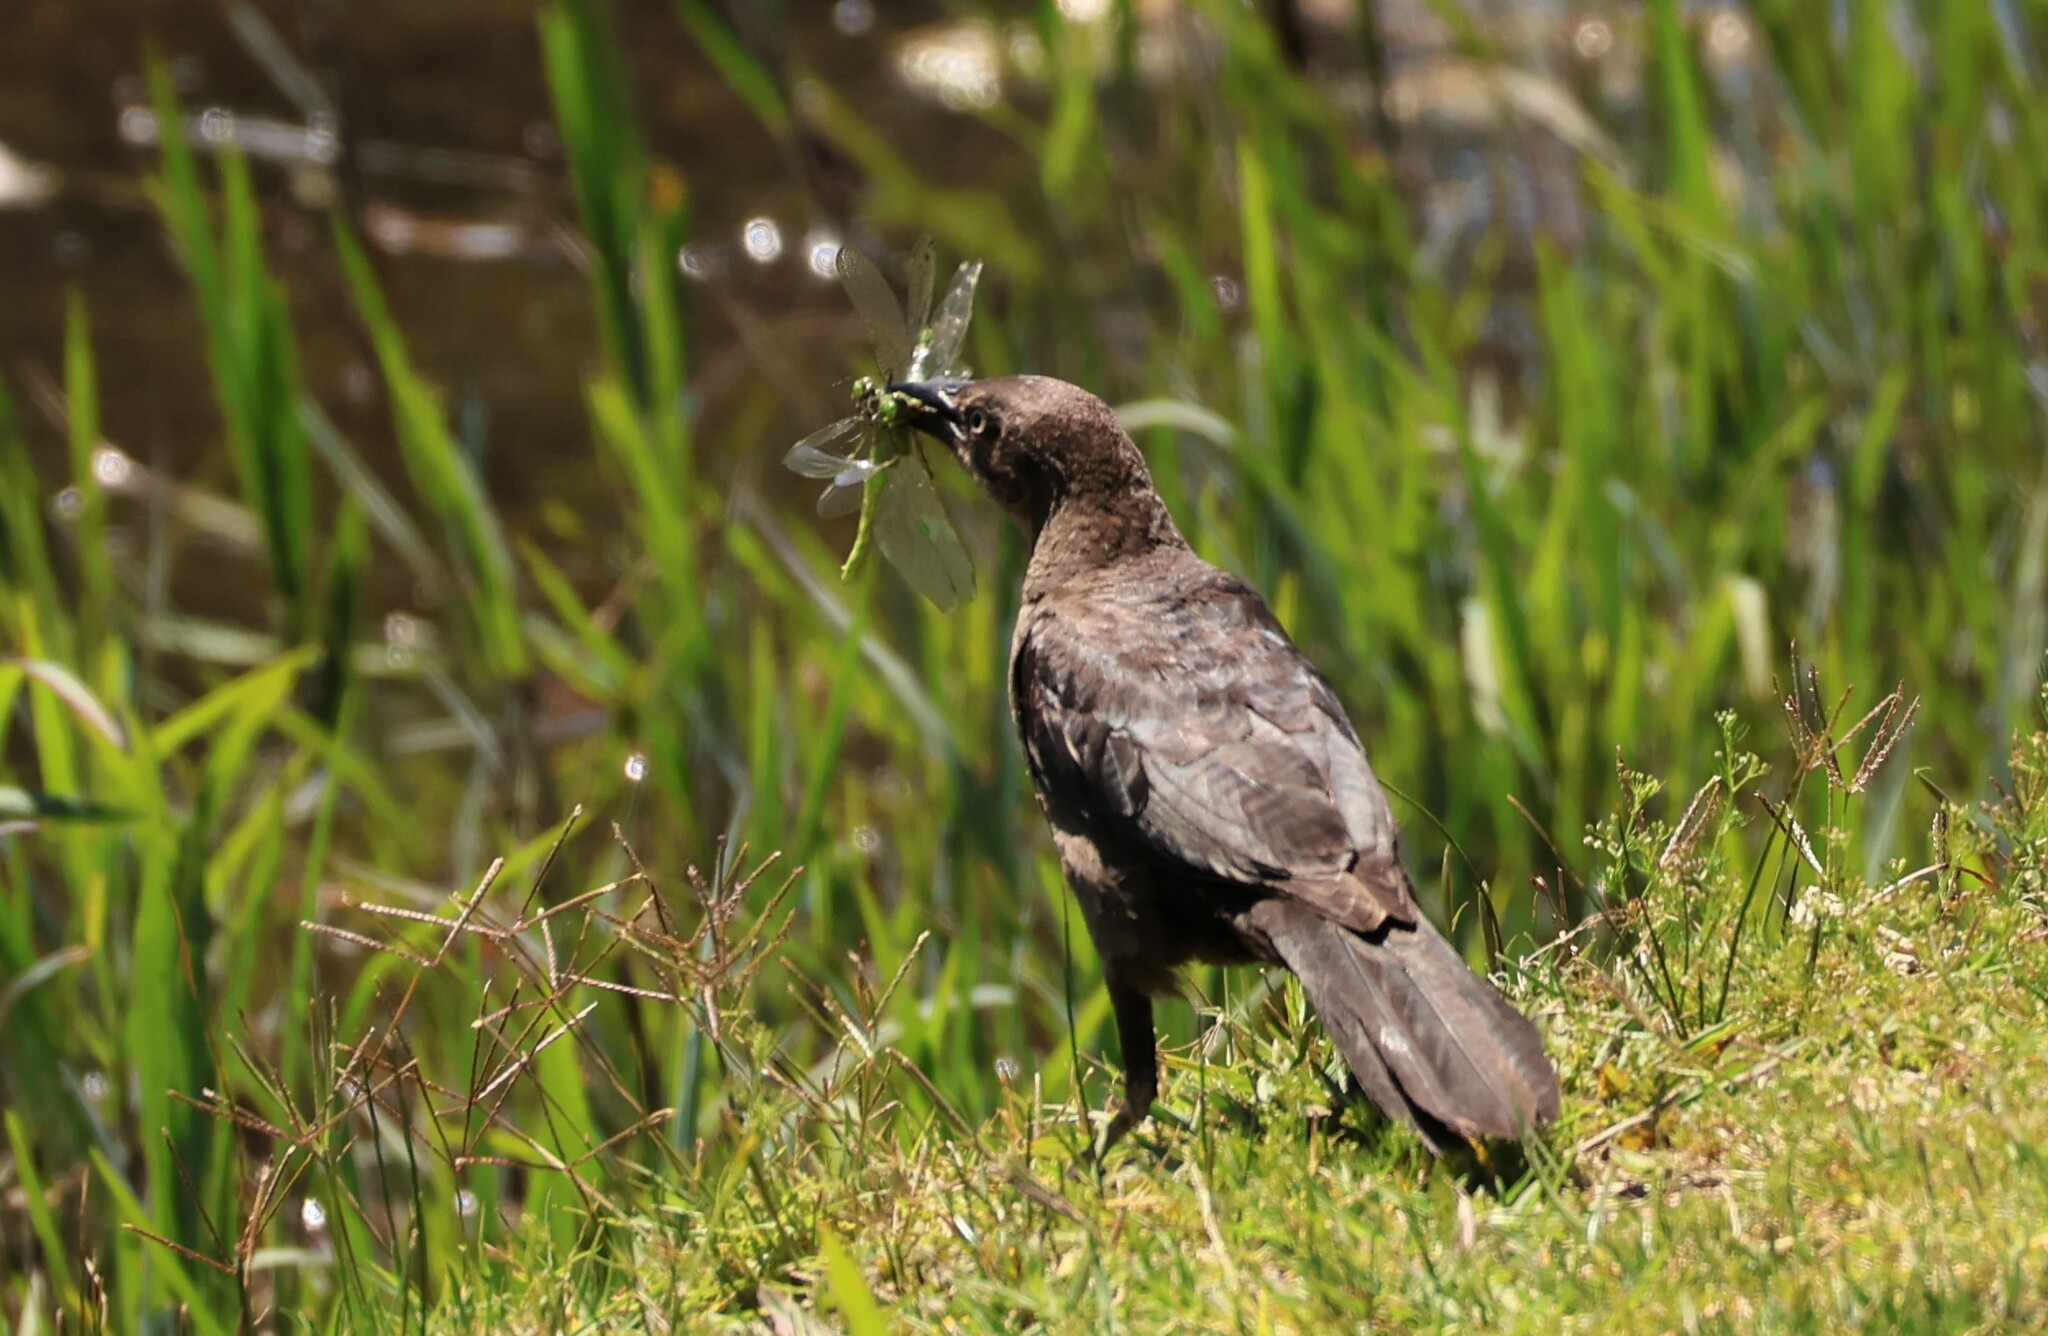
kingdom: Animalia
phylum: Chordata
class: Aves
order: Passeriformes
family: Icteridae
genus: Quiscalus
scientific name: Quiscalus mexicanus
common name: Great-tailed grackle
